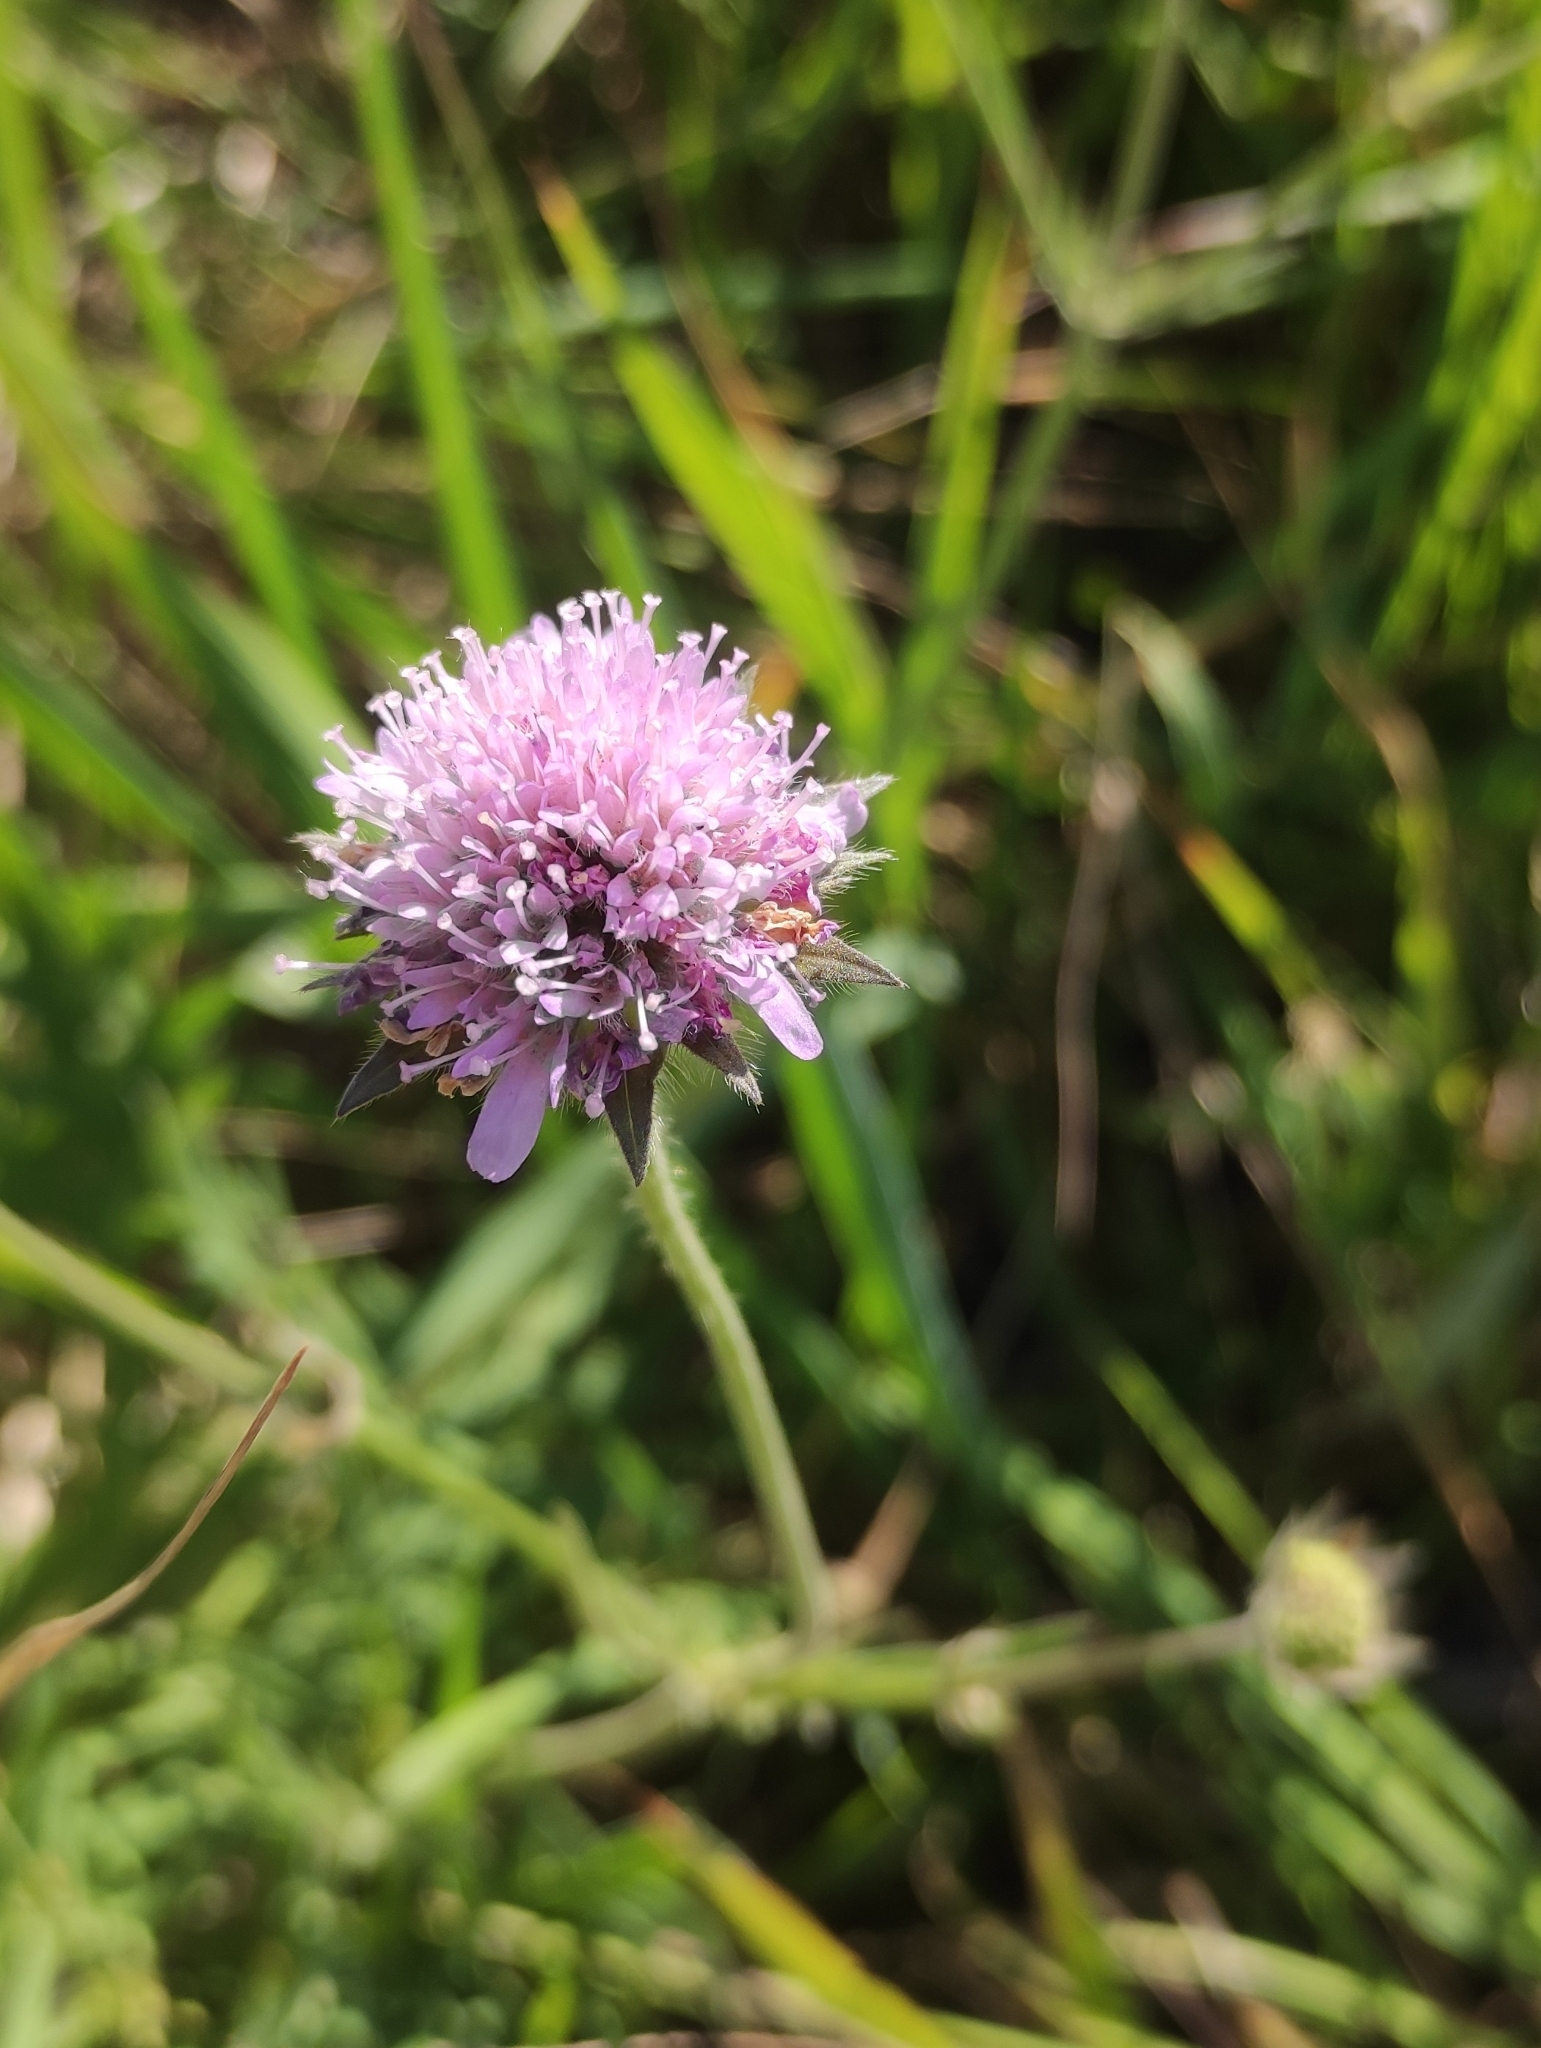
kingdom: Plantae
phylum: Tracheophyta
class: Magnoliopsida
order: Dipsacales
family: Caprifoliaceae
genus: Knautia
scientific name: Knautia arvensis
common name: Field scabiosa
